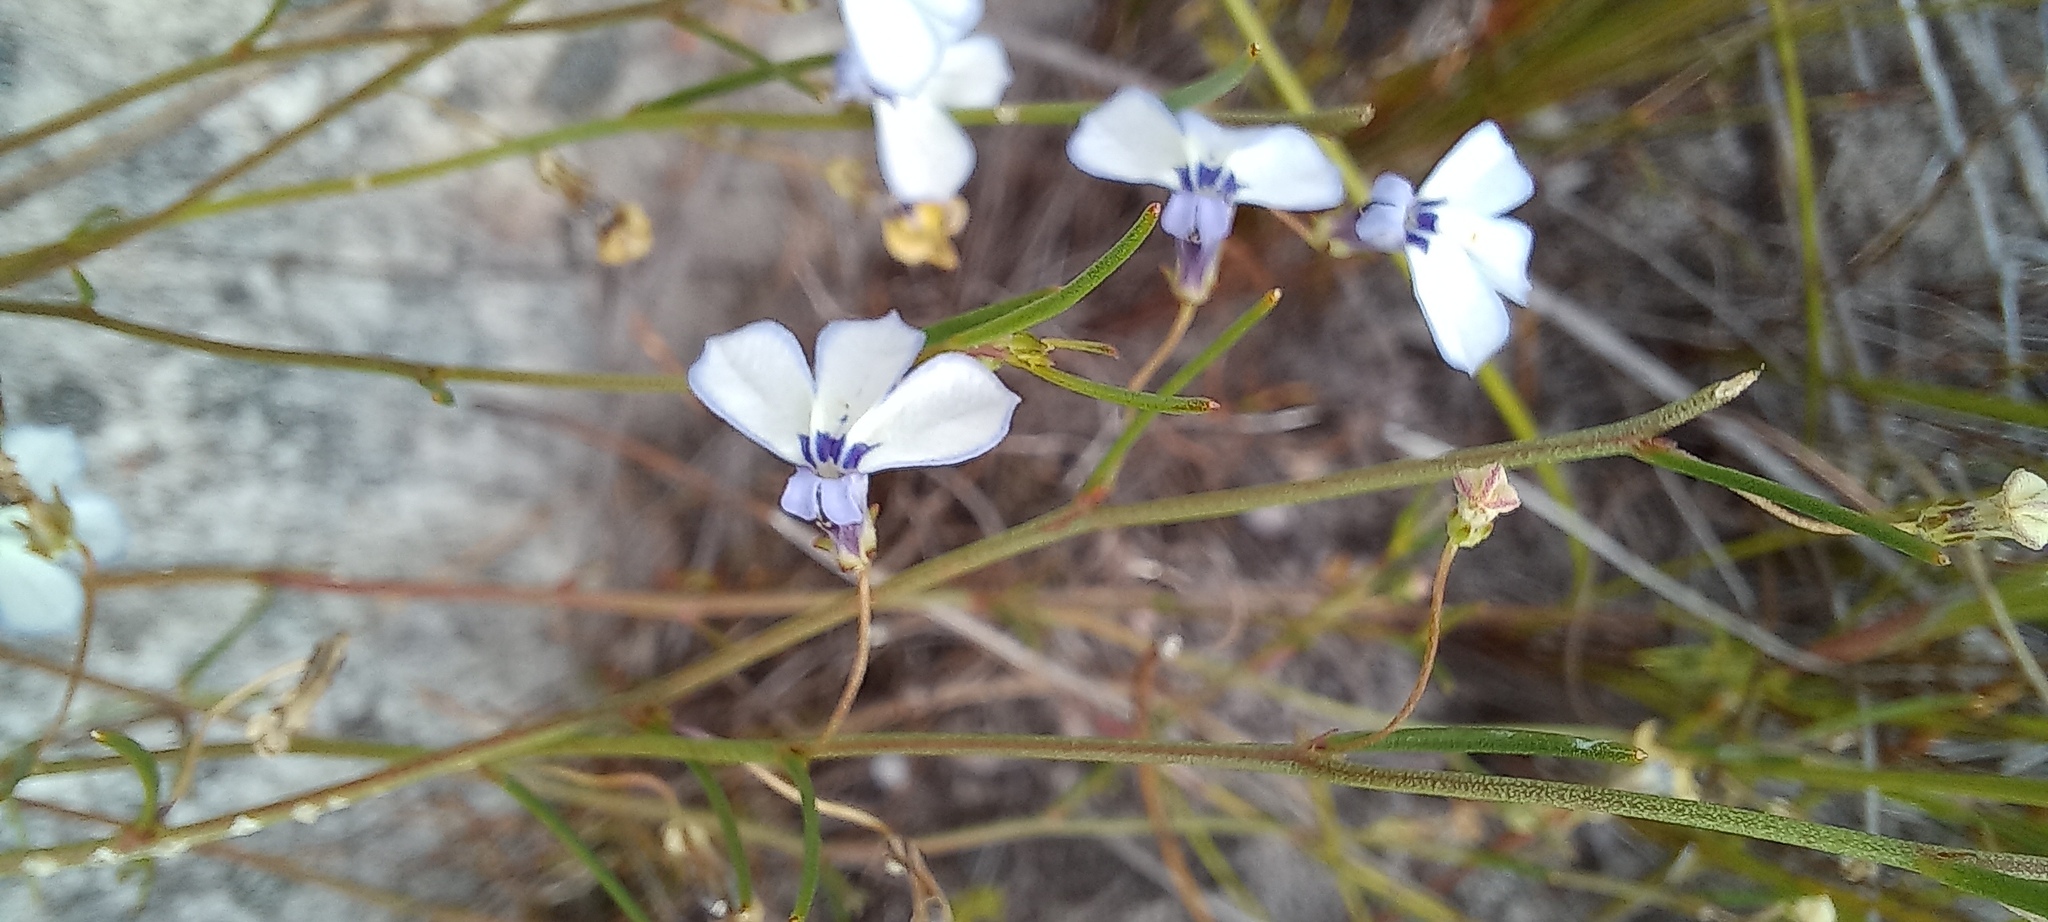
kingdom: Plantae
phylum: Tracheophyta
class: Magnoliopsida
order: Asterales
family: Campanulaceae
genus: Lobelia
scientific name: Lobelia setacea
